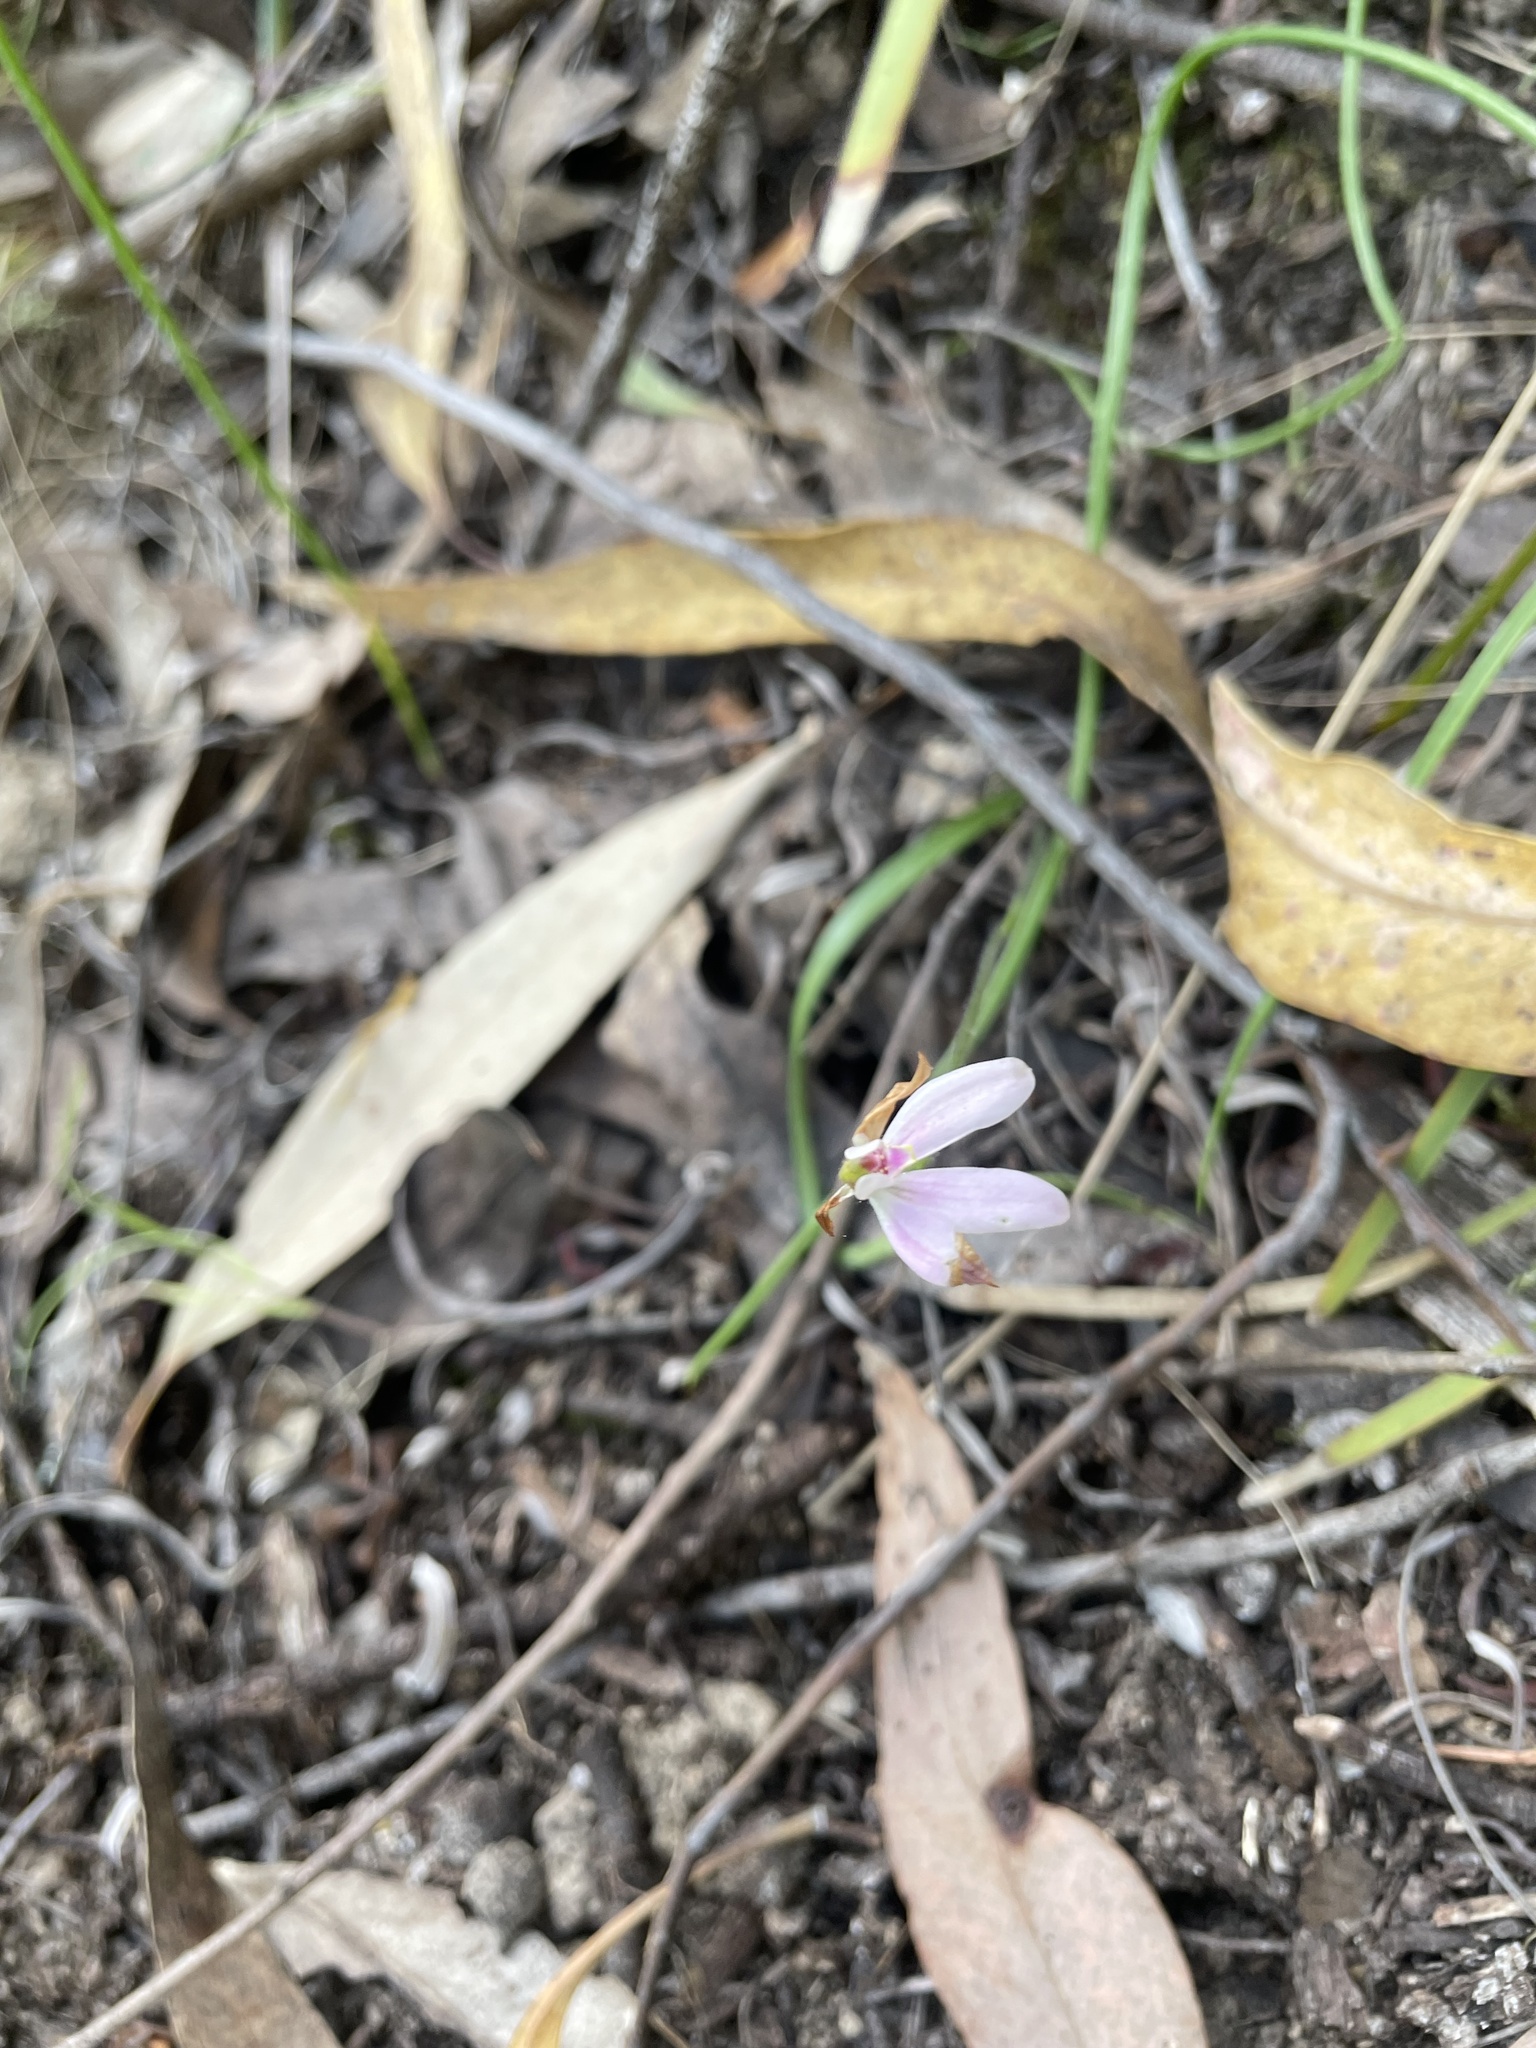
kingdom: Plantae
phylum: Tracheophyta
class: Liliopsida
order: Asparagales
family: Orchidaceae
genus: Caladenia
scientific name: Caladenia fuscata
